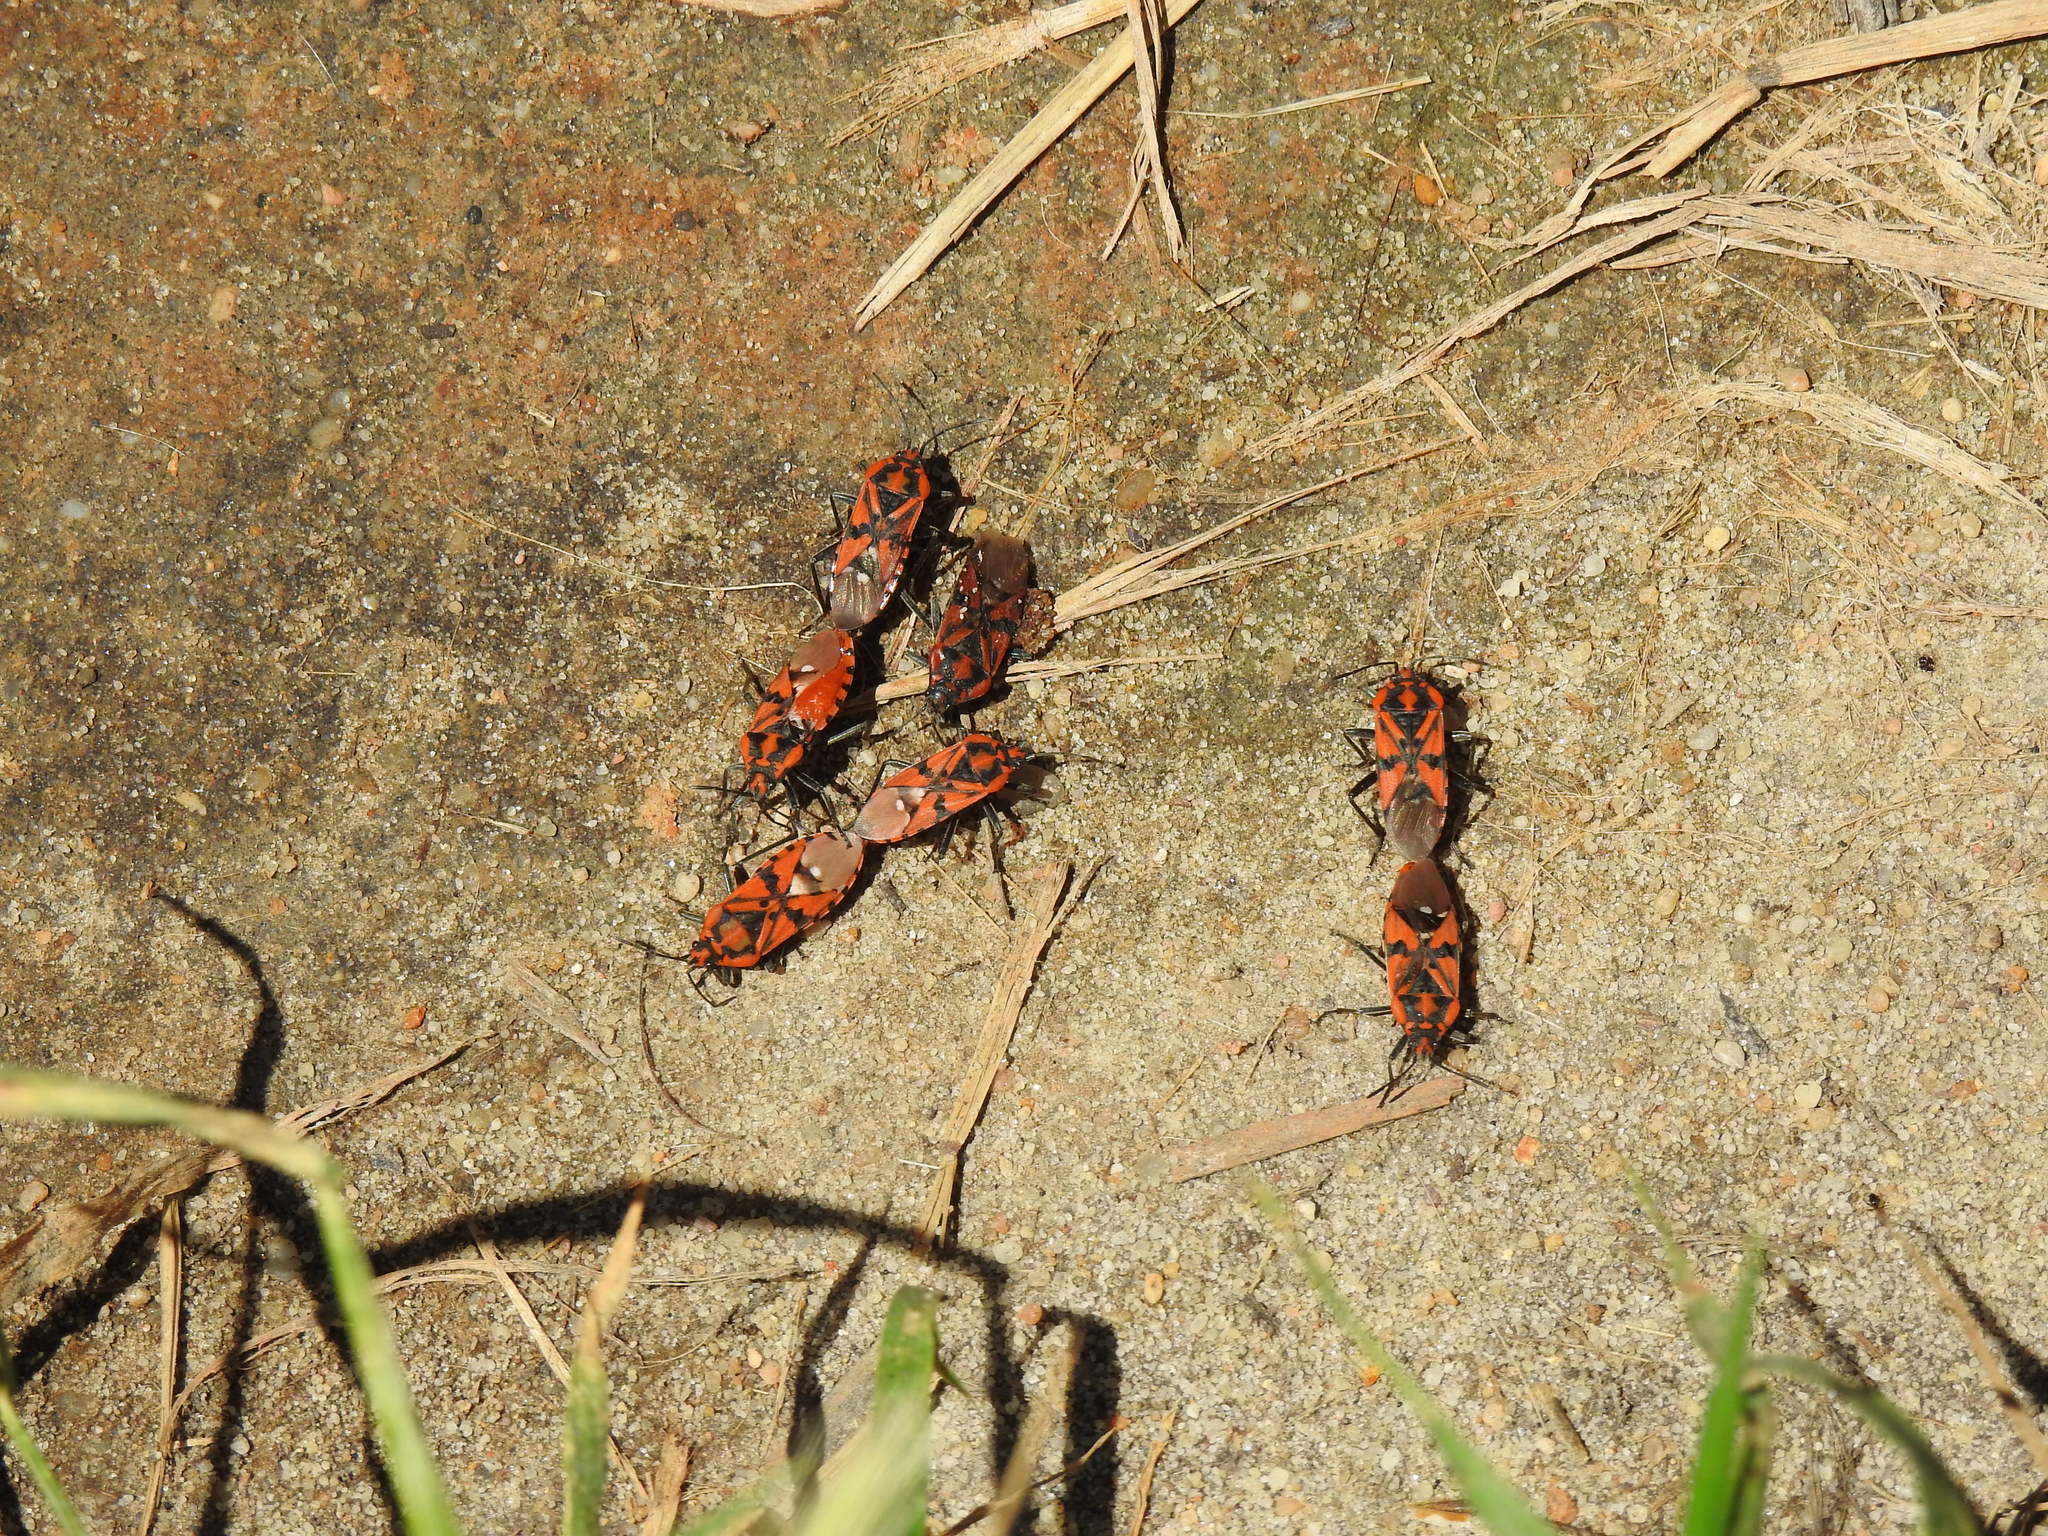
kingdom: Animalia
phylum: Arthropoda
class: Insecta
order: Hemiptera
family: Lygaeidae
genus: Spilostethus
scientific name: Spilostethus pandurus
